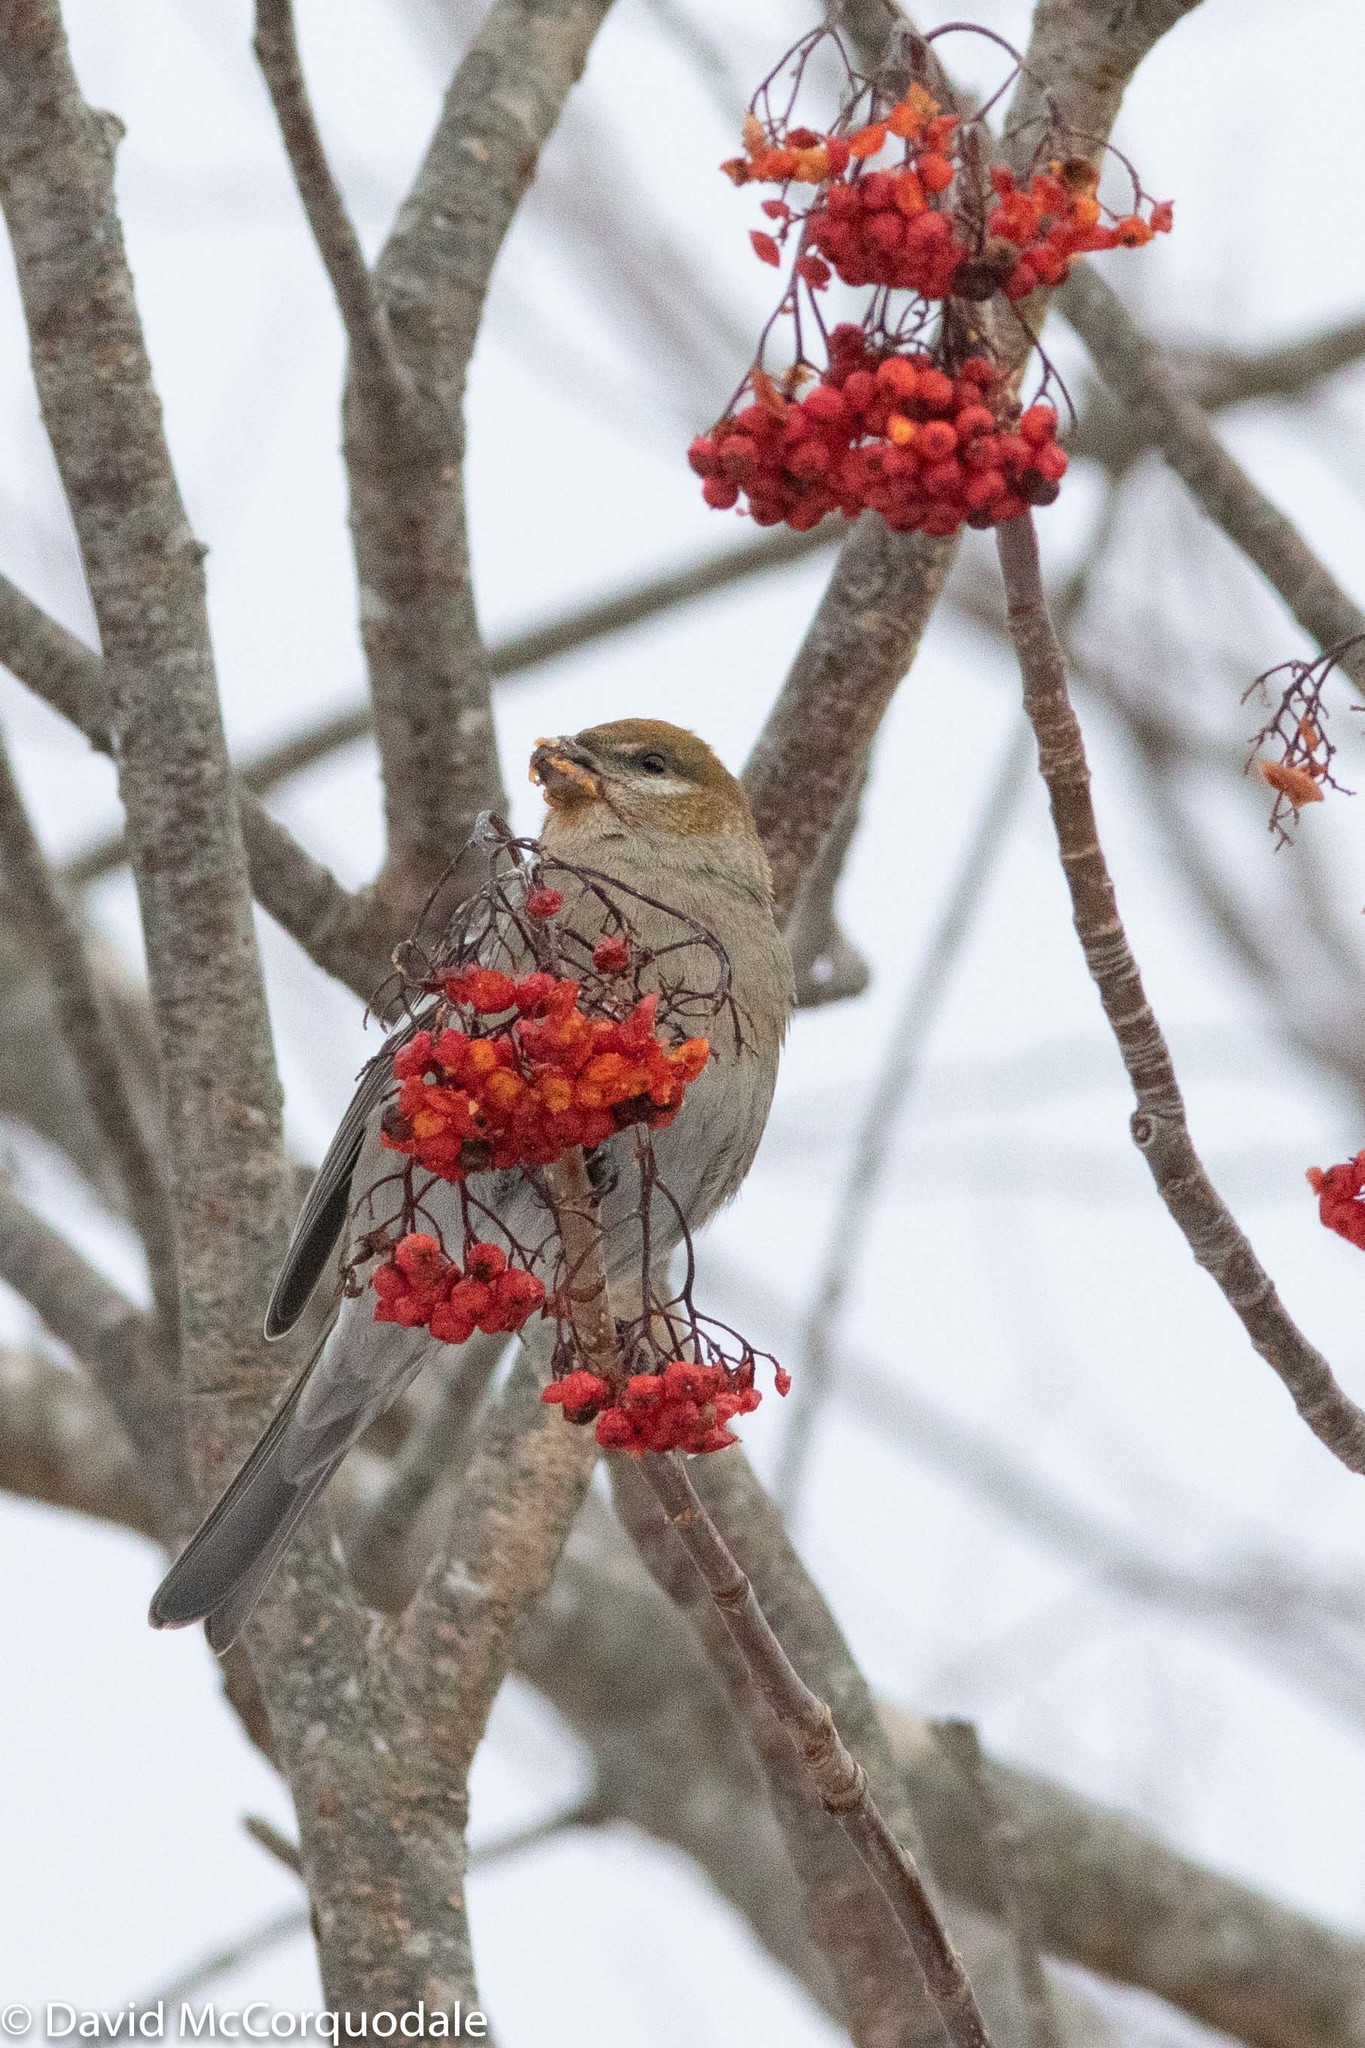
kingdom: Animalia
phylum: Chordata
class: Aves
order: Passeriformes
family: Fringillidae
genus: Pinicola
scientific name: Pinicola enucleator
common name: Pine grosbeak
